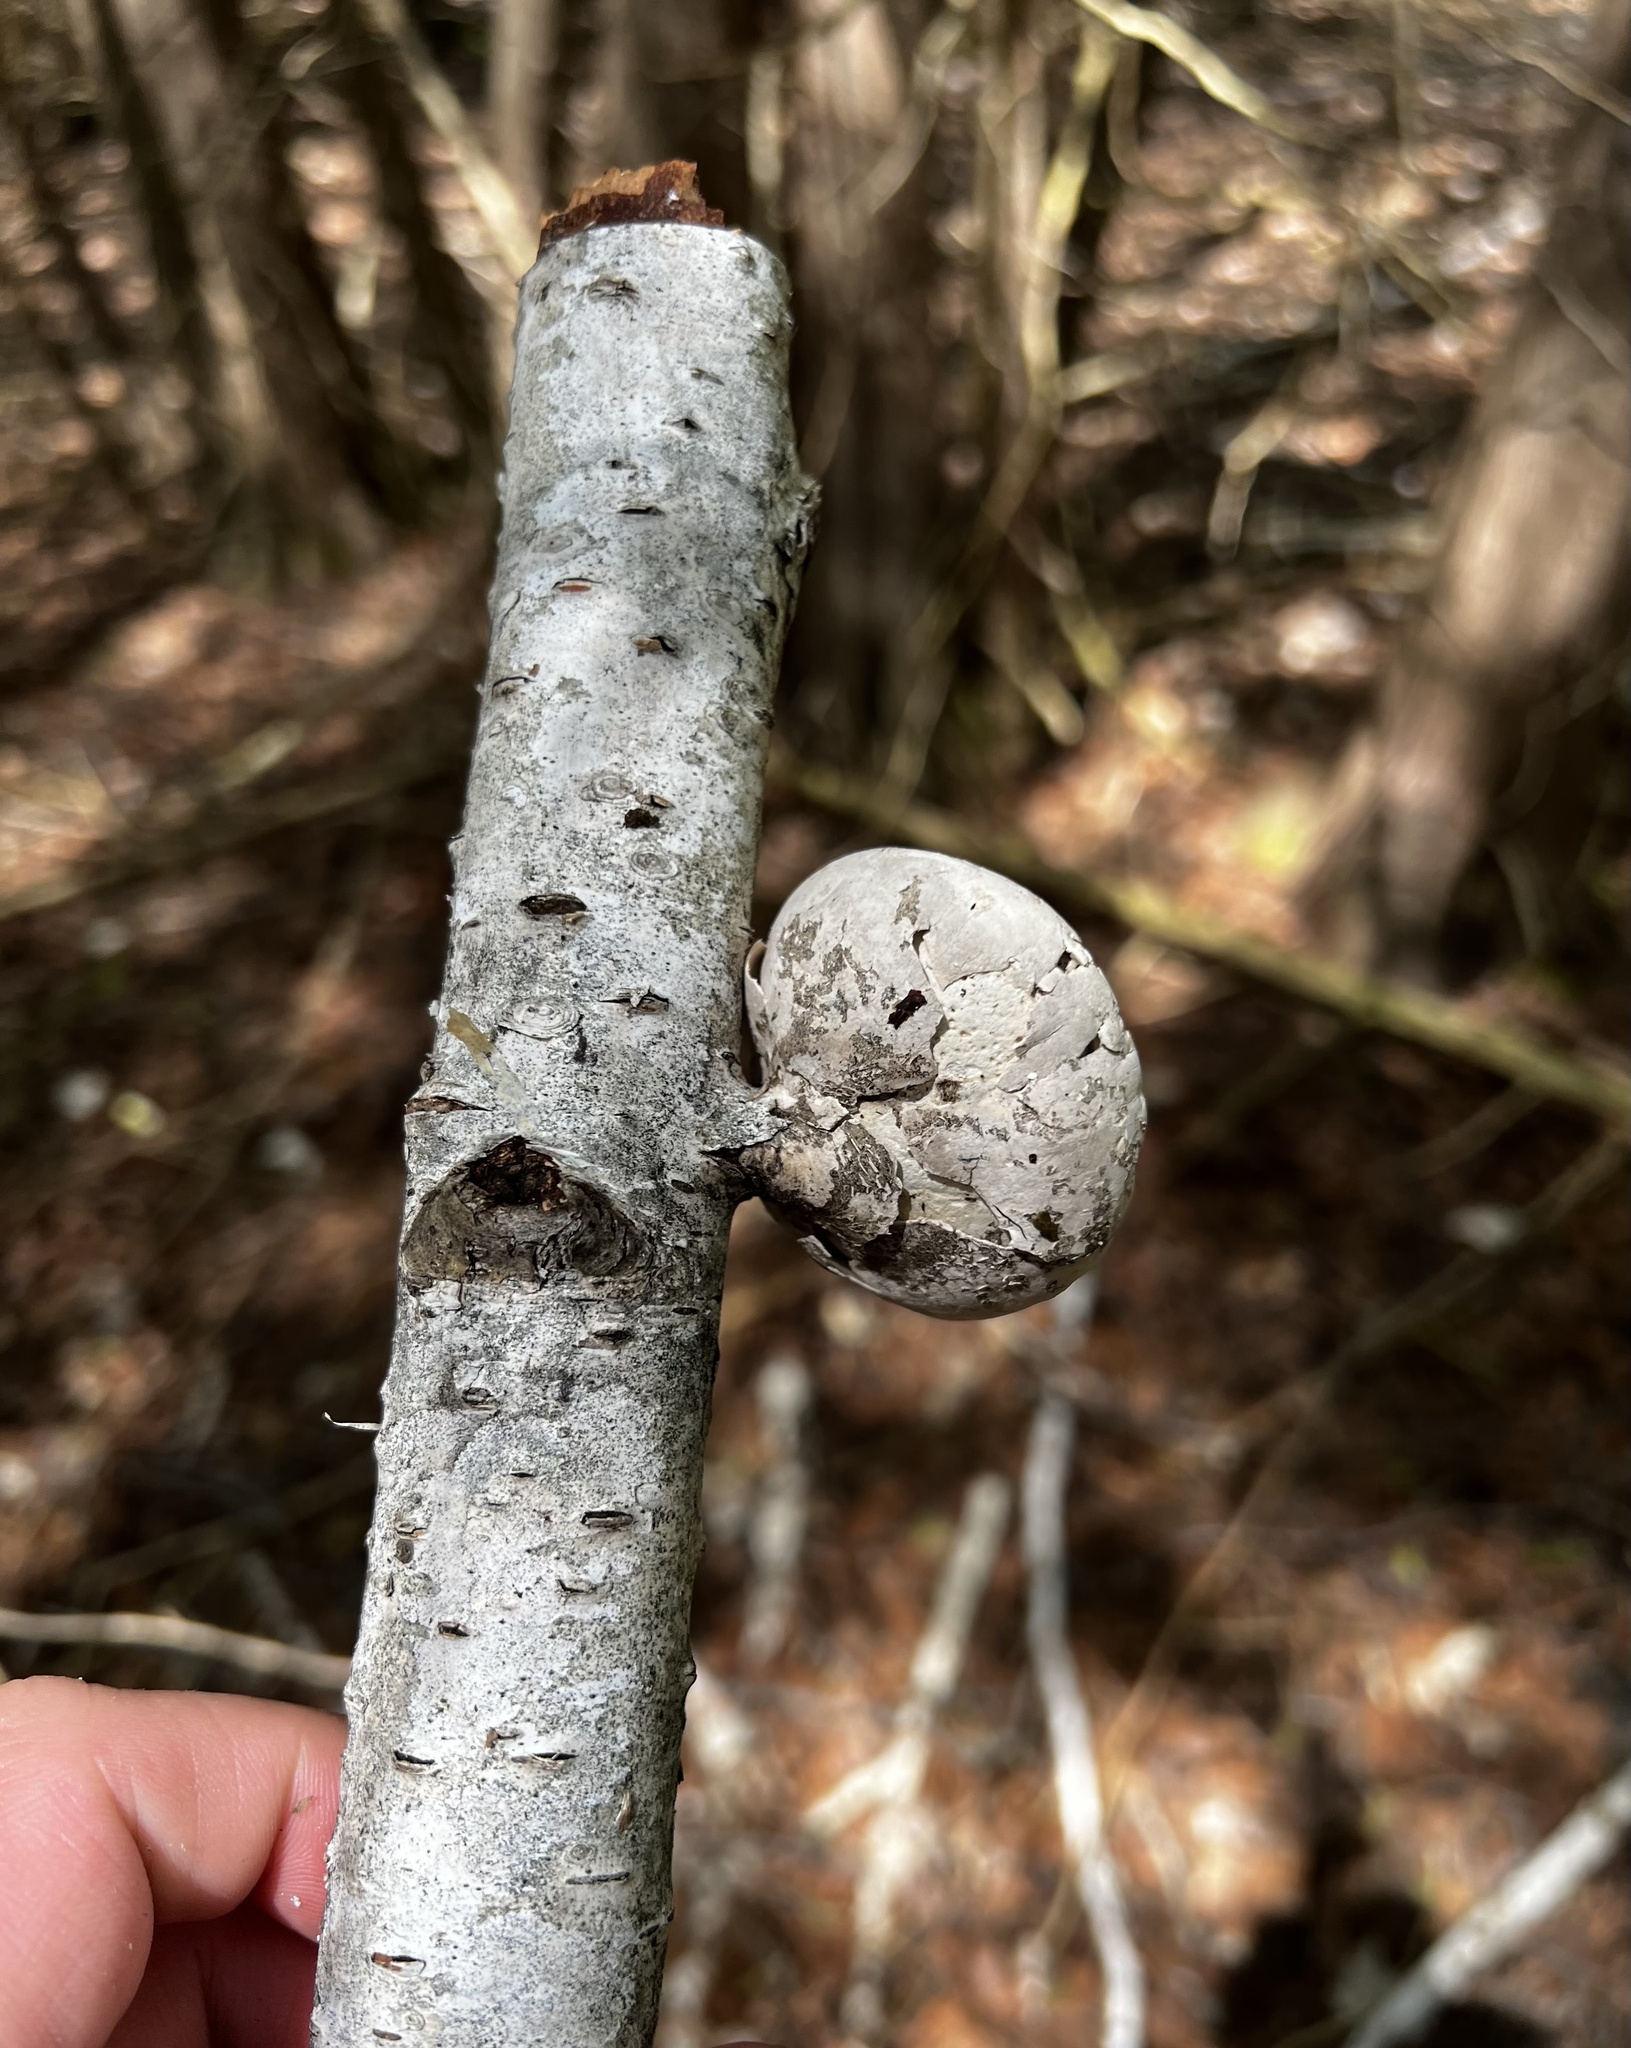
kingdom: Fungi
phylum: Basidiomycota
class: Agaricomycetes
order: Polyporales
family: Fomitopsidaceae
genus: Fomitopsis
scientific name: Fomitopsis betulina
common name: Birch polypore
